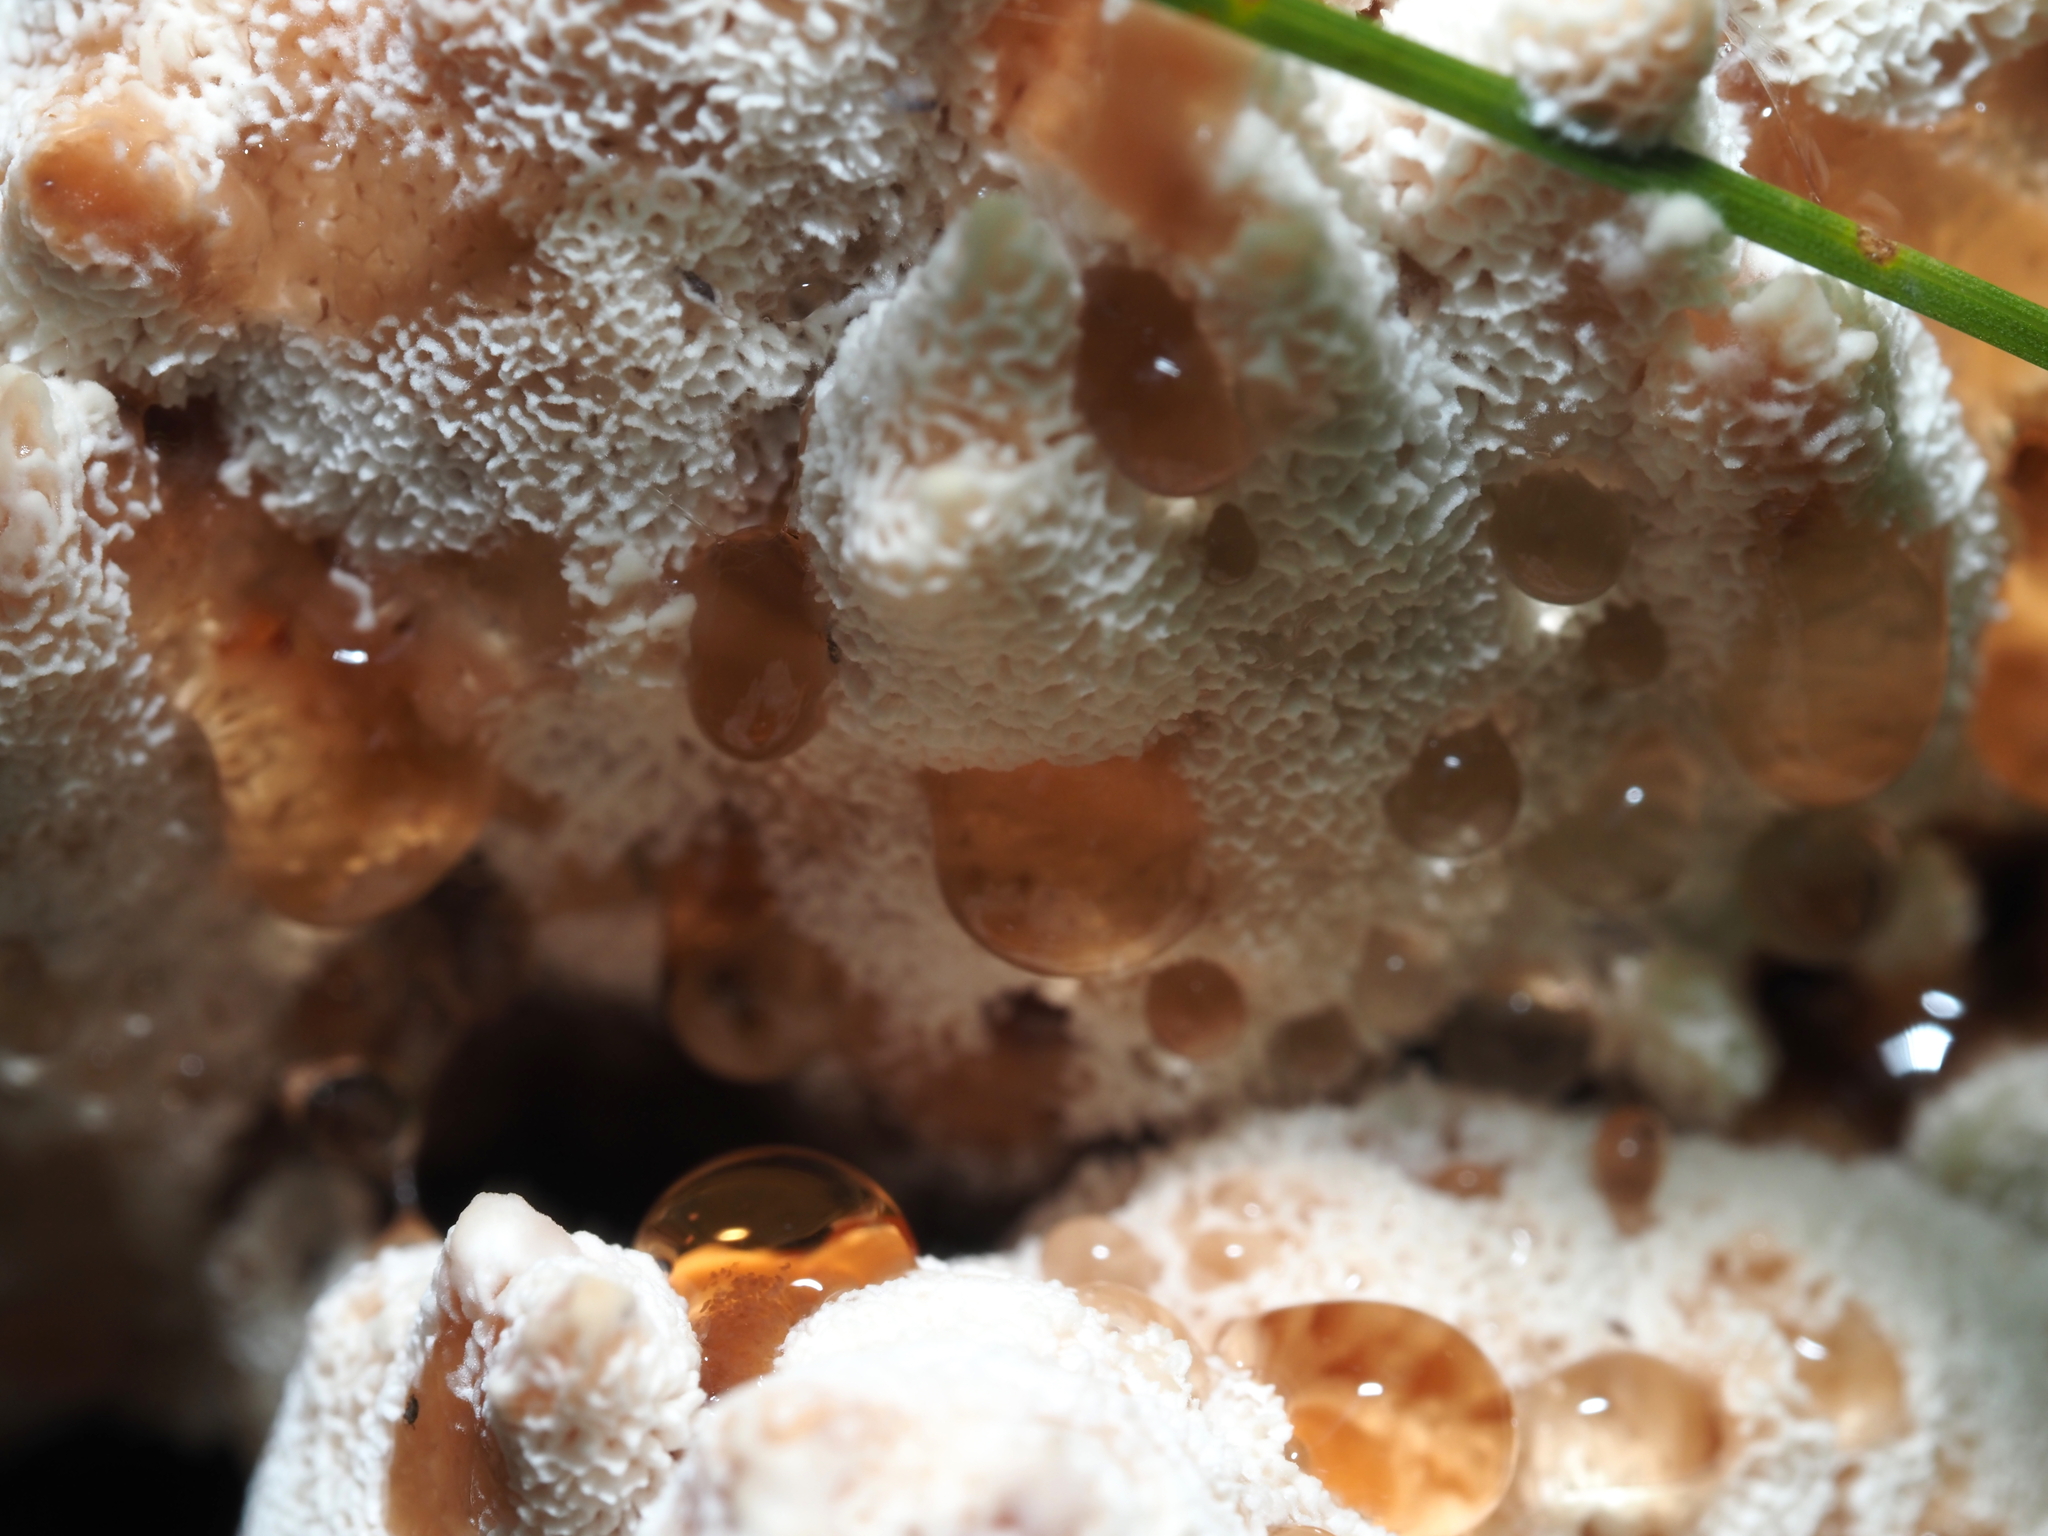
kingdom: Fungi
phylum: Basidiomycota
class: Agaricomycetes
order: Polyporales
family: Podoscyphaceae
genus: Abortiporus
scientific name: Abortiporus biennis
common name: Blushing rosette
